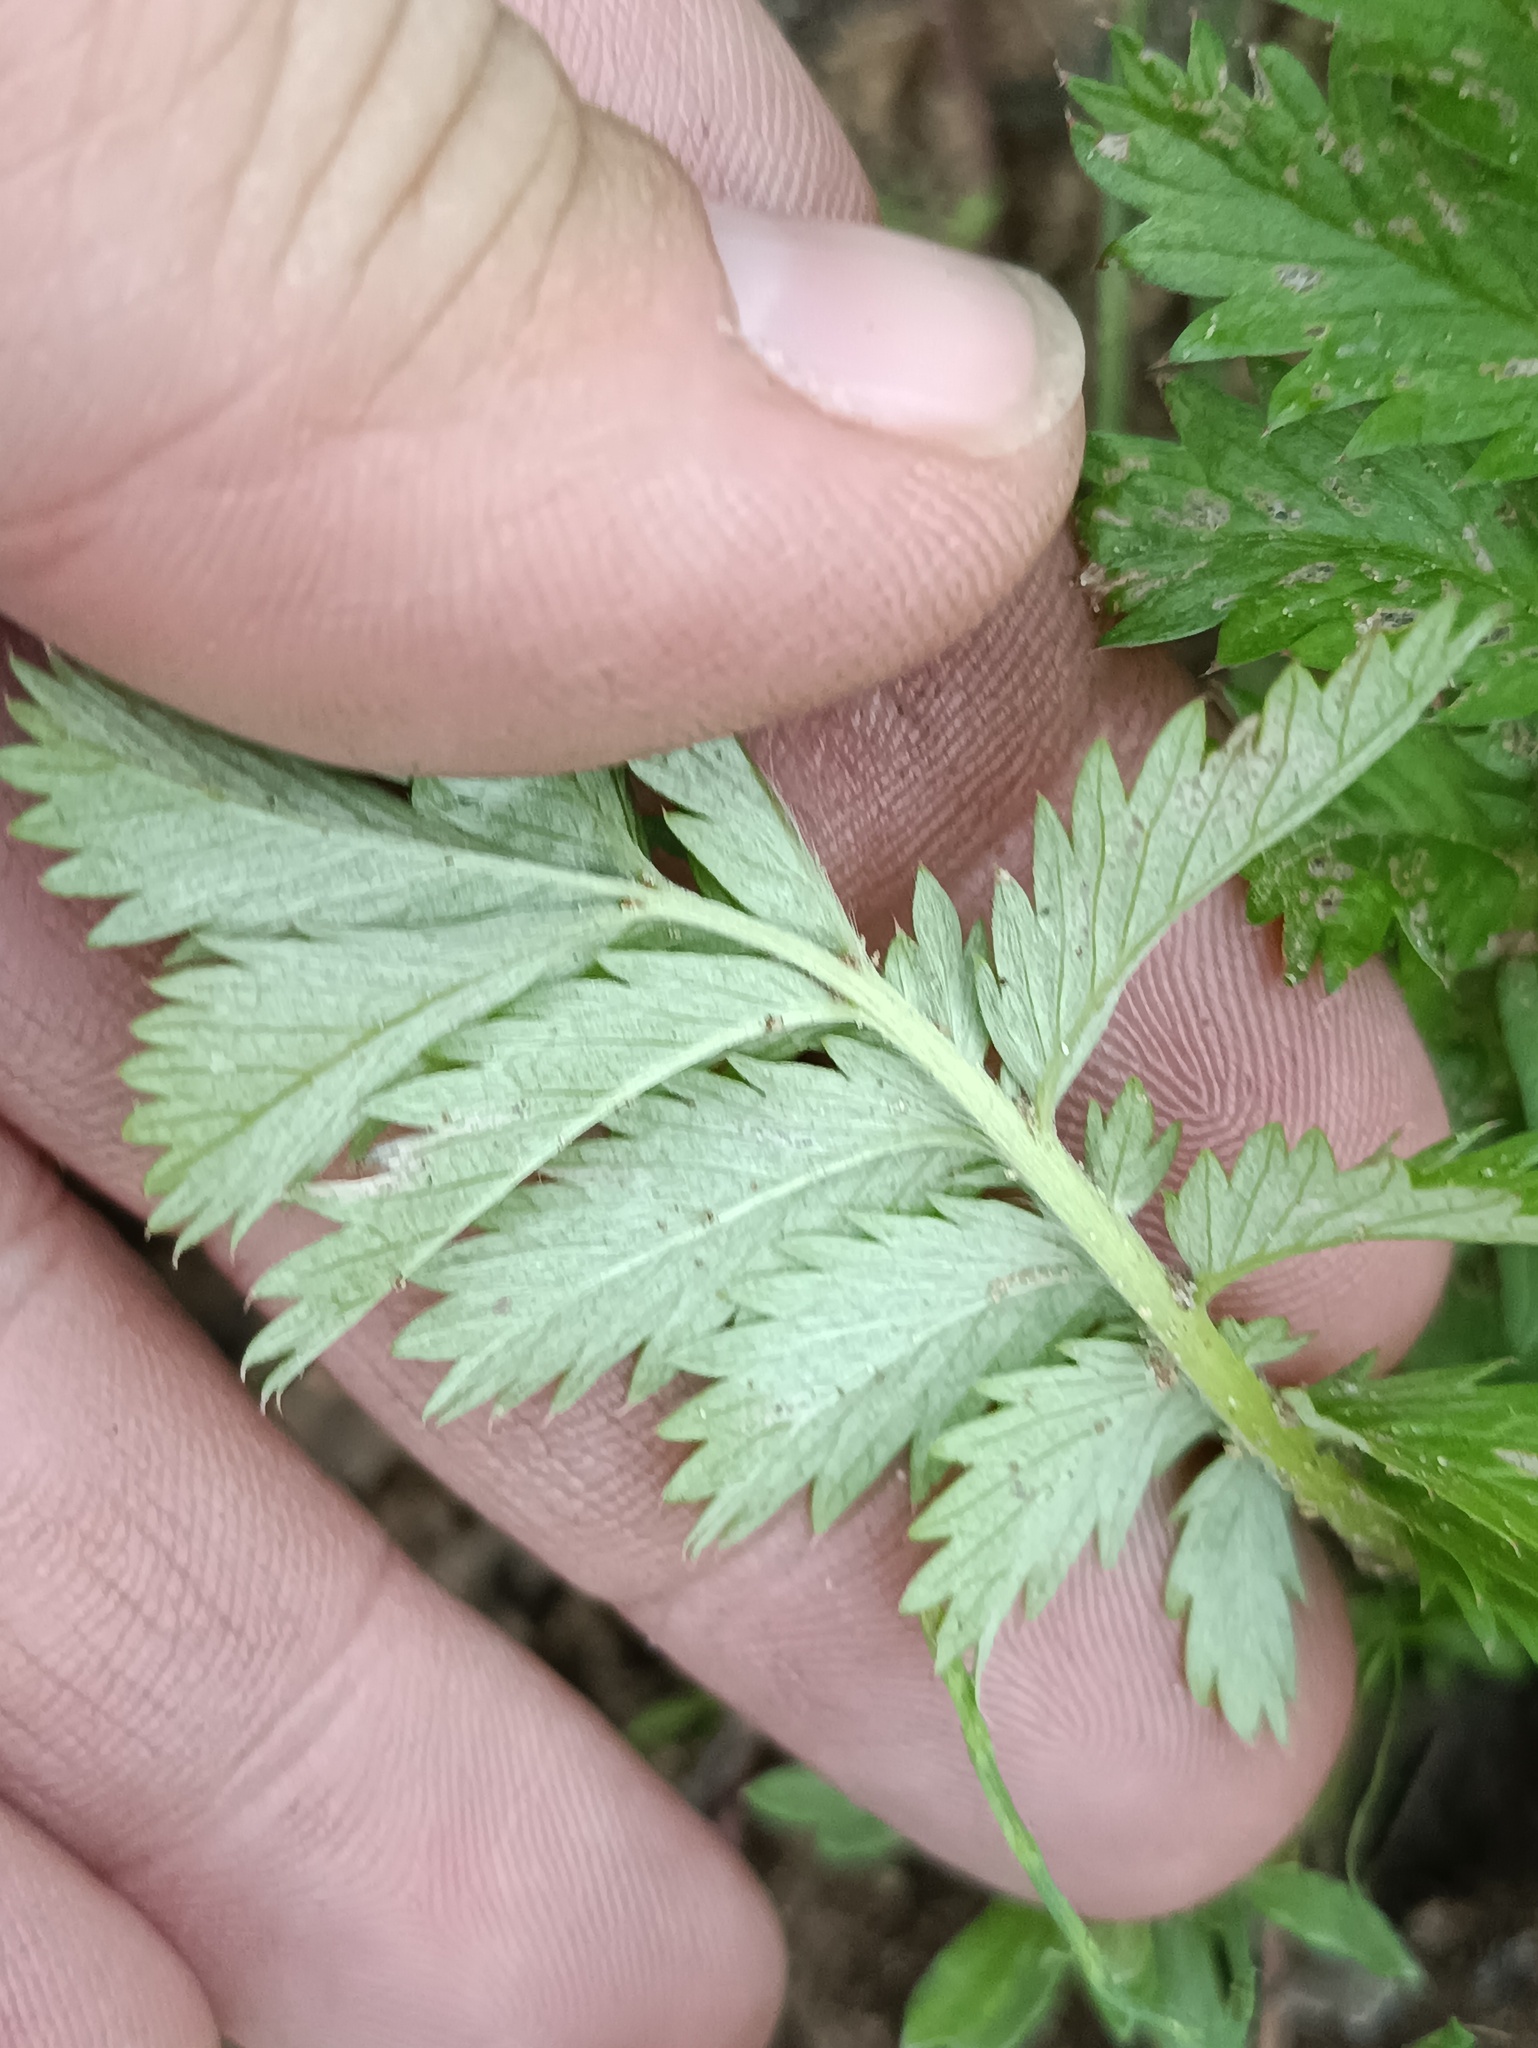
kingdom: Plantae
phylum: Tracheophyta
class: Magnoliopsida
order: Rosales
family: Rosaceae
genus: Argentina
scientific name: Argentina anserina
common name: Common silverweed
